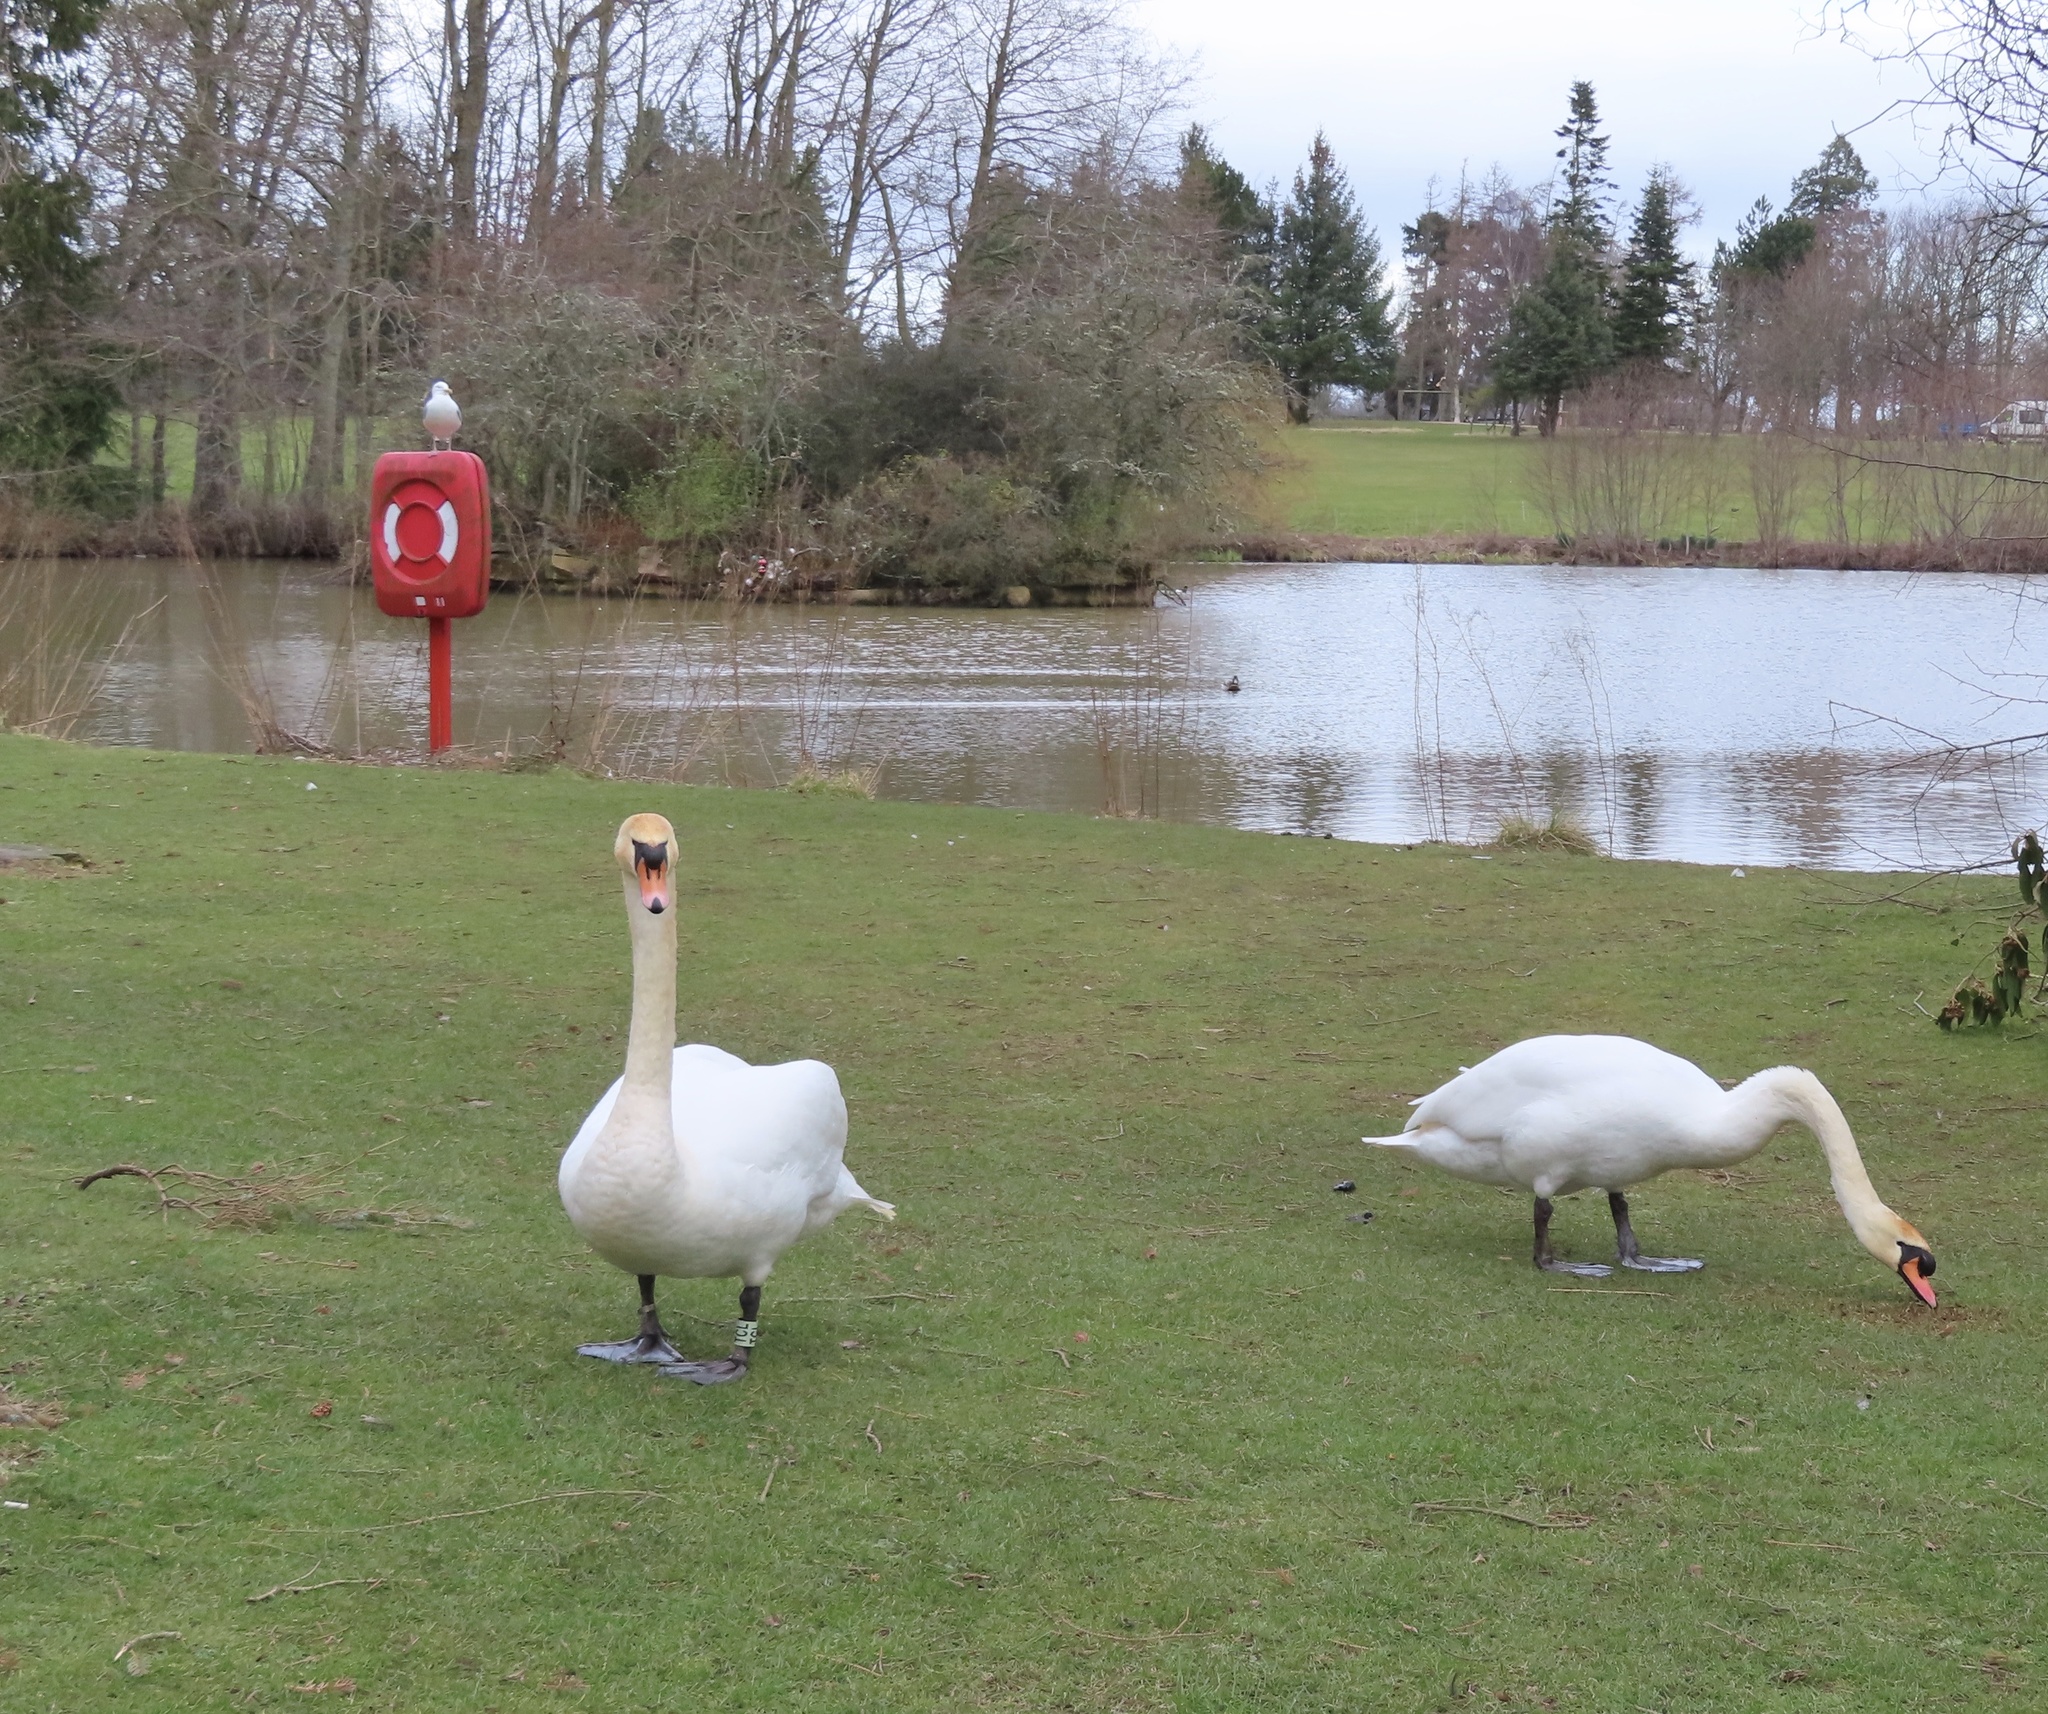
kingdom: Animalia
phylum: Chordata
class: Aves
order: Anseriformes
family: Anatidae
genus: Cygnus
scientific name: Cygnus olor
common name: Mute swan
